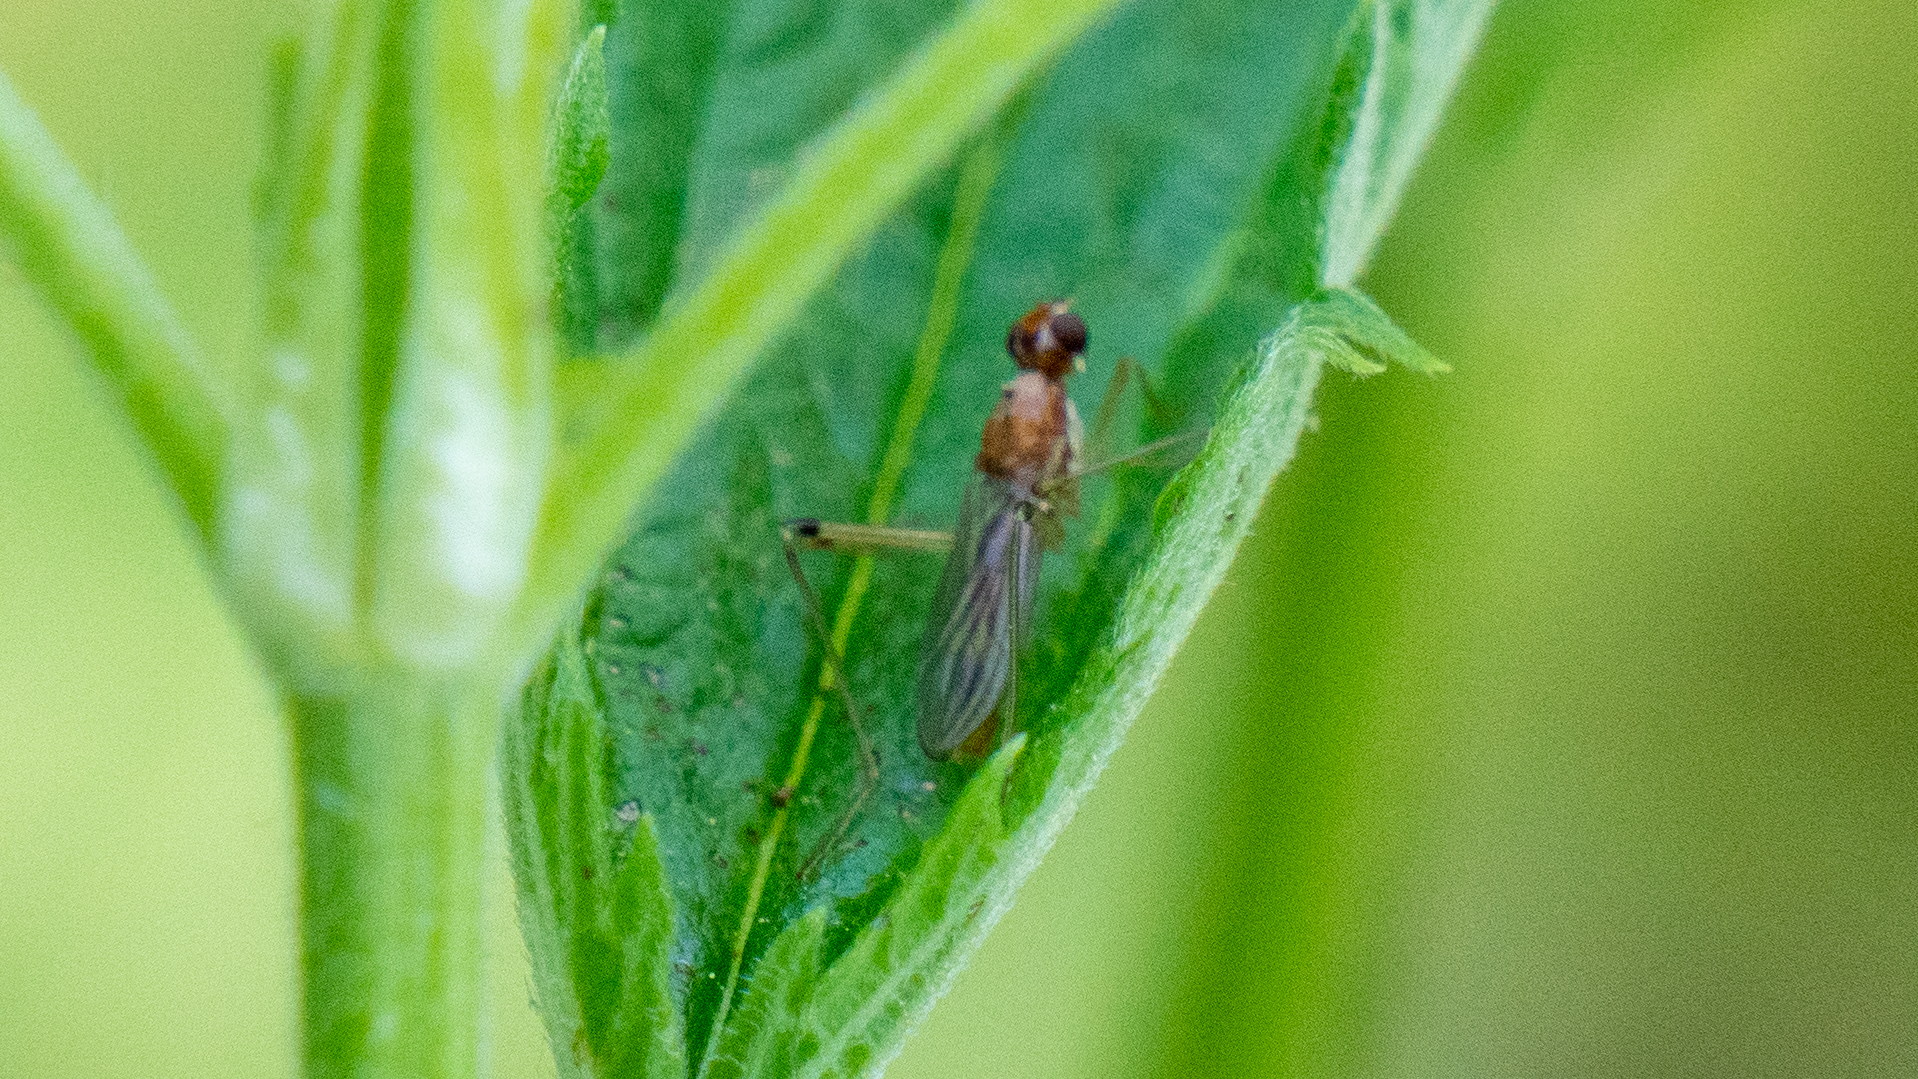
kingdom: Animalia
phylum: Arthropoda
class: Insecta
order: Diptera
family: Micropezidae
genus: Compsobata
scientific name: Compsobata univitta
